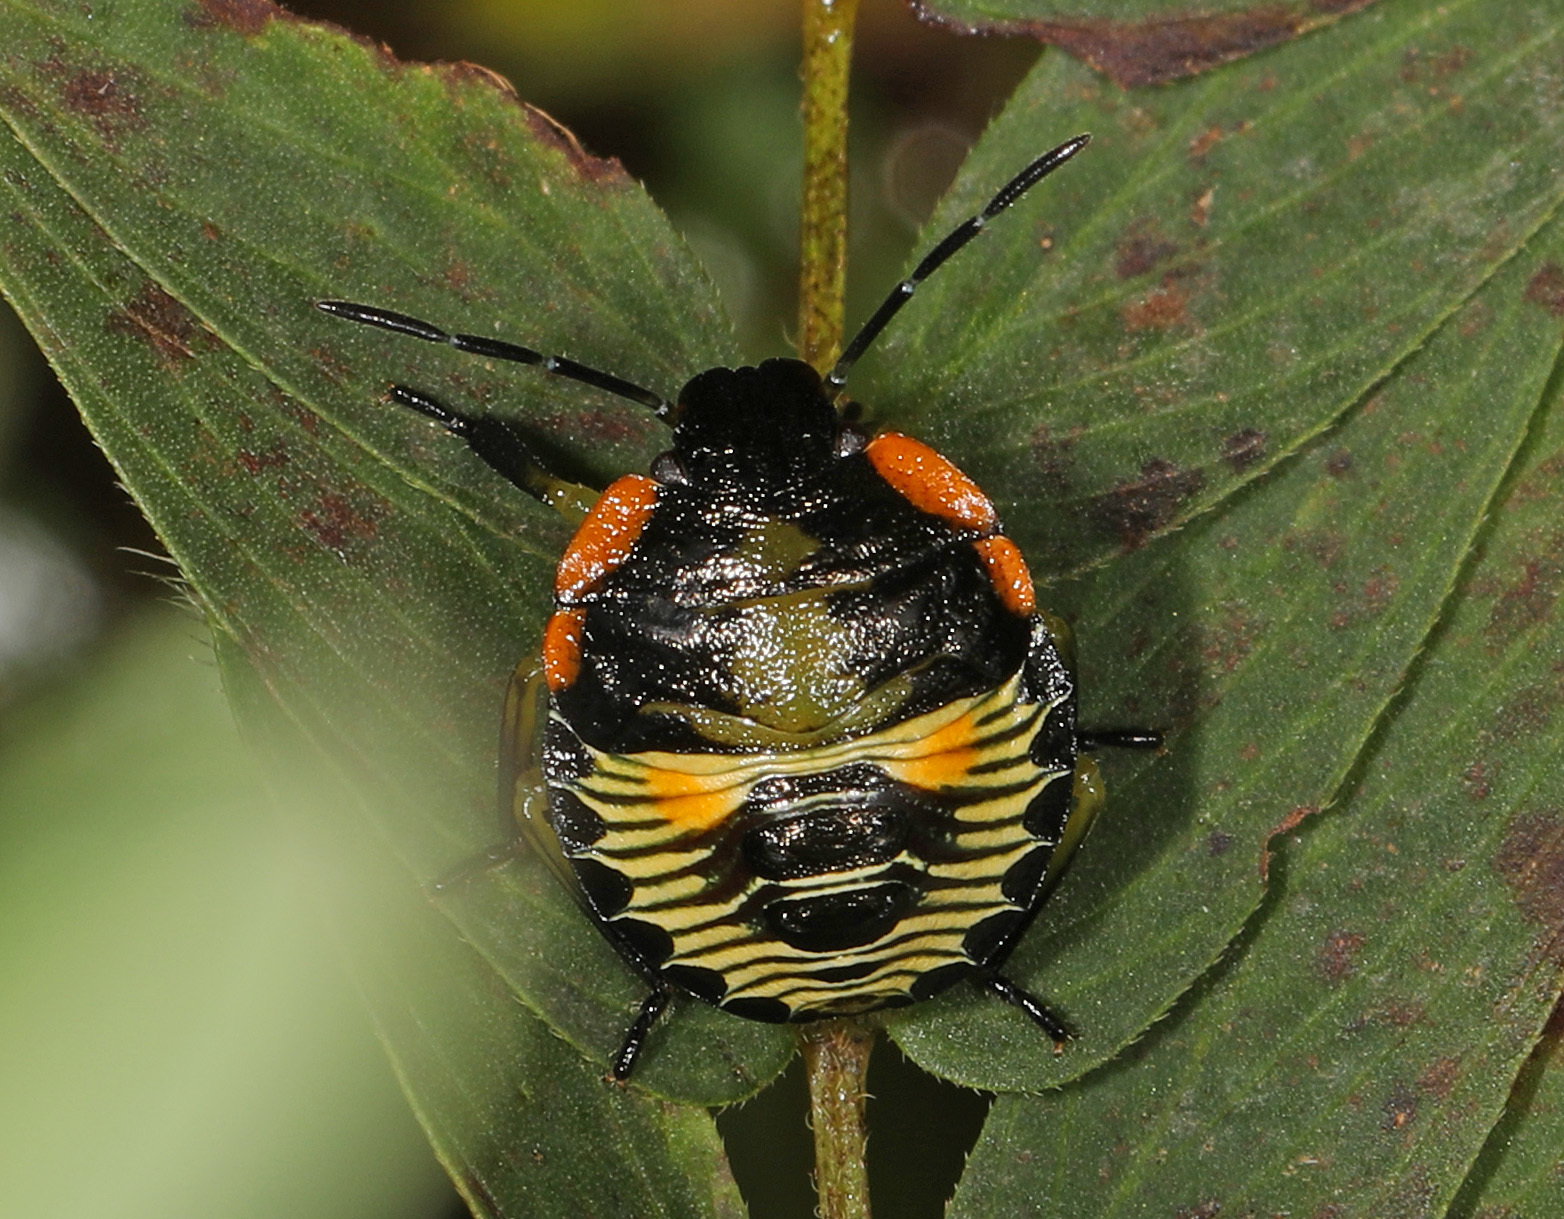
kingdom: Animalia
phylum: Arthropoda
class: Insecta
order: Hemiptera
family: Pentatomidae
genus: Chinavia
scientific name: Chinavia hilaris
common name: Green stink bug
